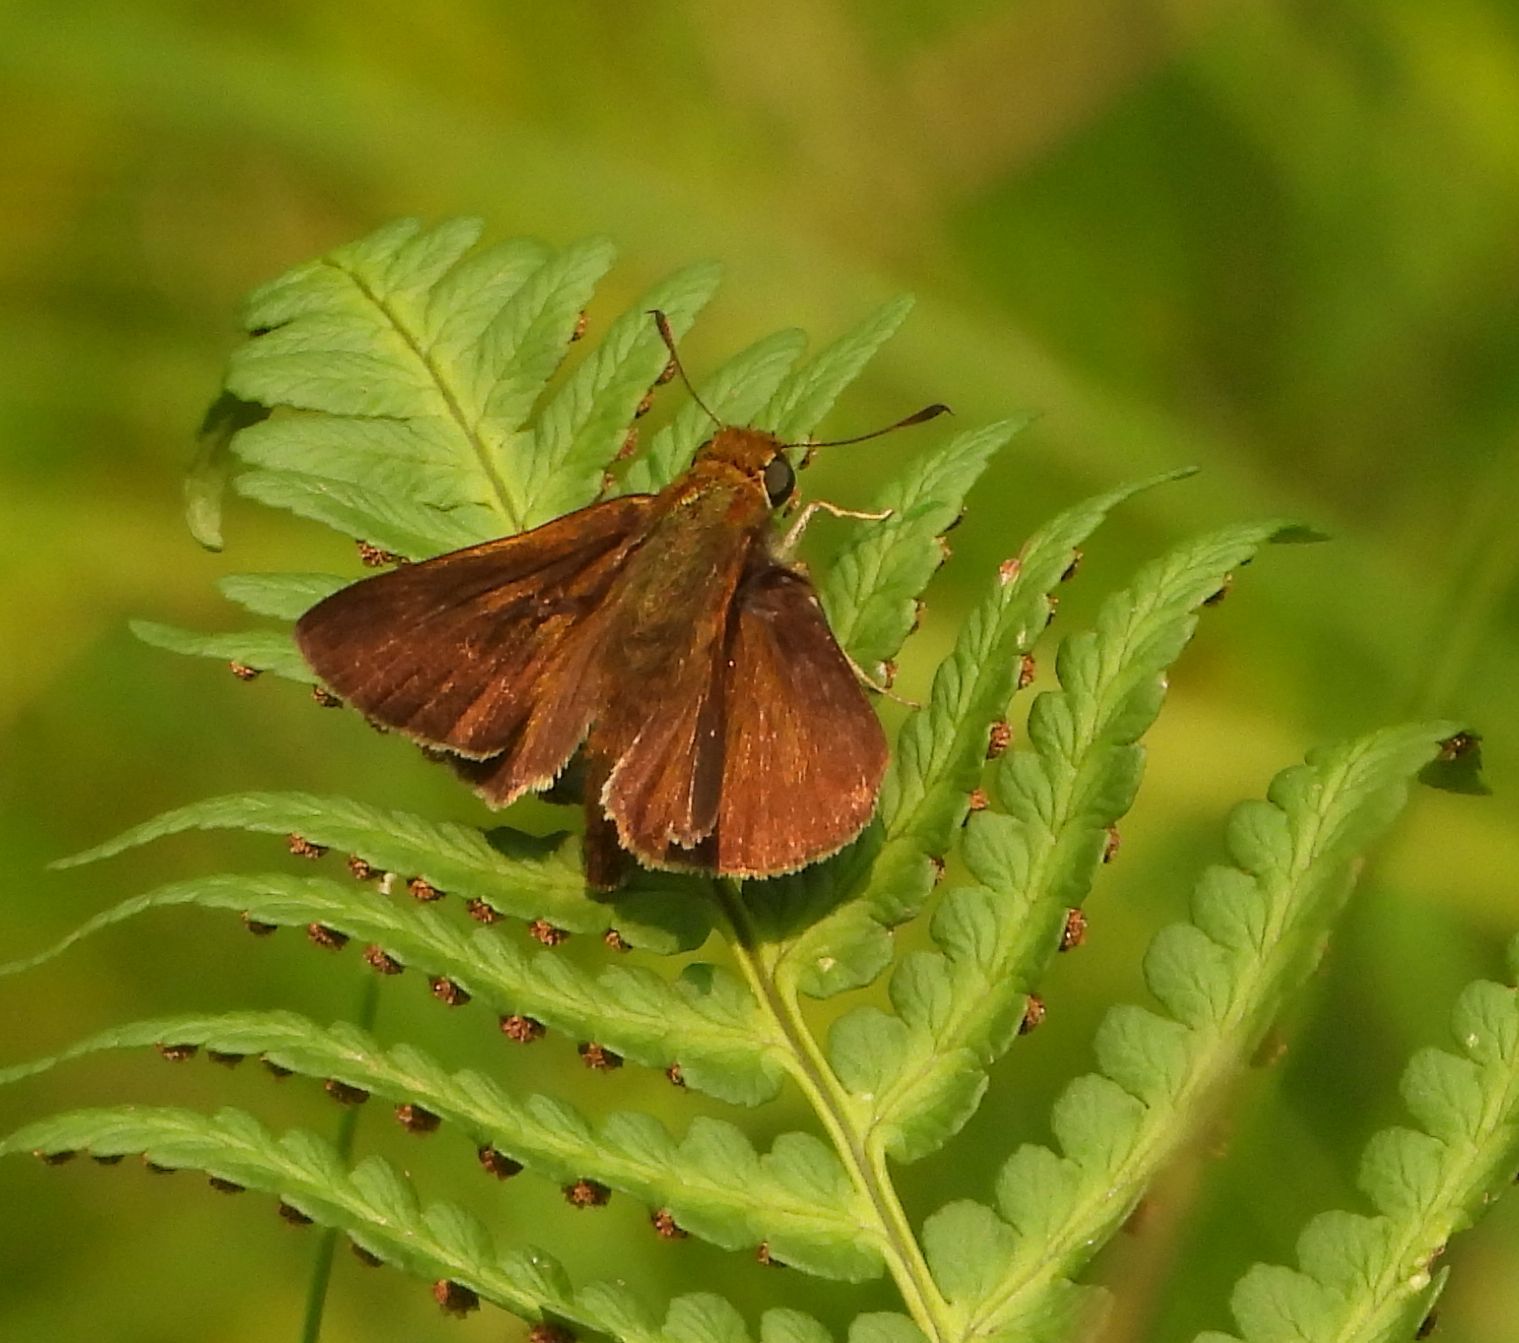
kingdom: Animalia
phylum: Arthropoda
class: Insecta
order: Lepidoptera
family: Hesperiidae
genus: Euphyes
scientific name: Euphyes vestris
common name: Dun skipper
